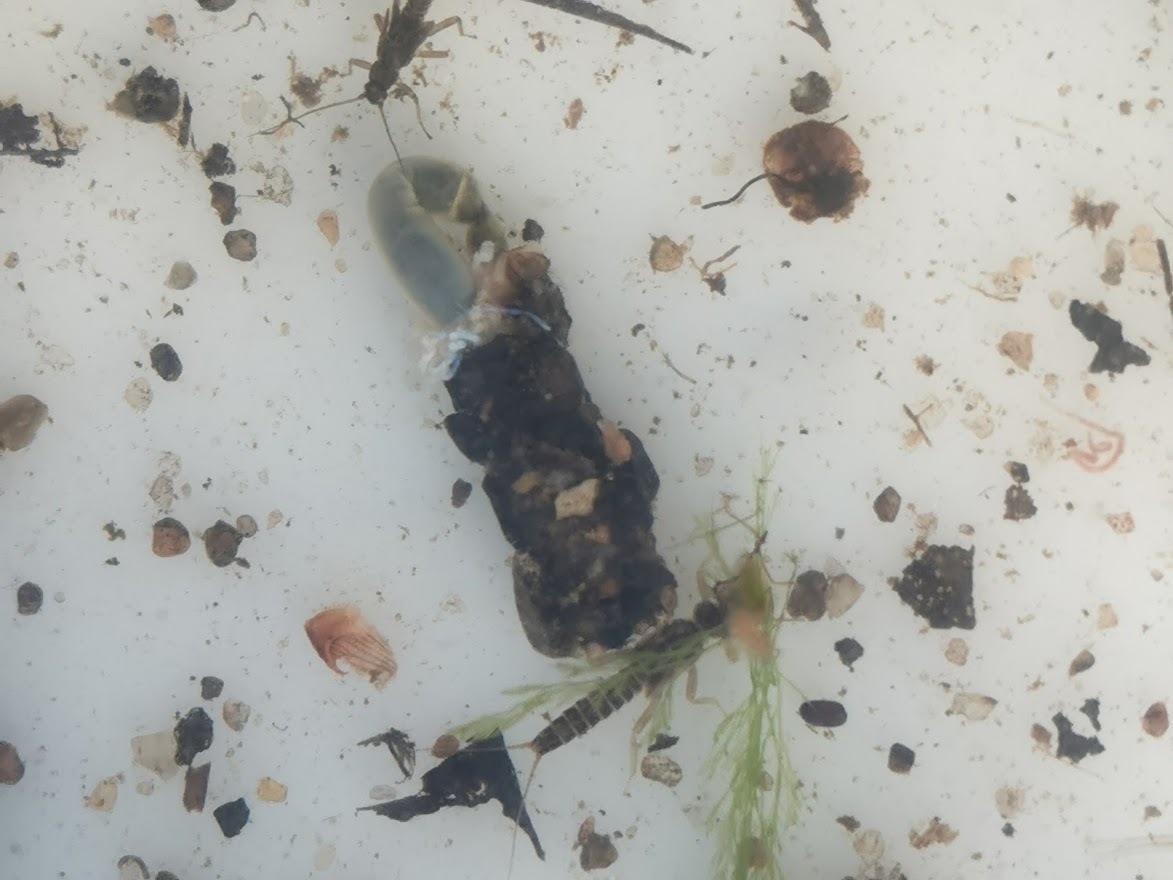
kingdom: Animalia
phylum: Arthropoda
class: Insecta
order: Plecoptera
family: Taeniopterygidae
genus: Brachyptera
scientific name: Brachyptera risi
